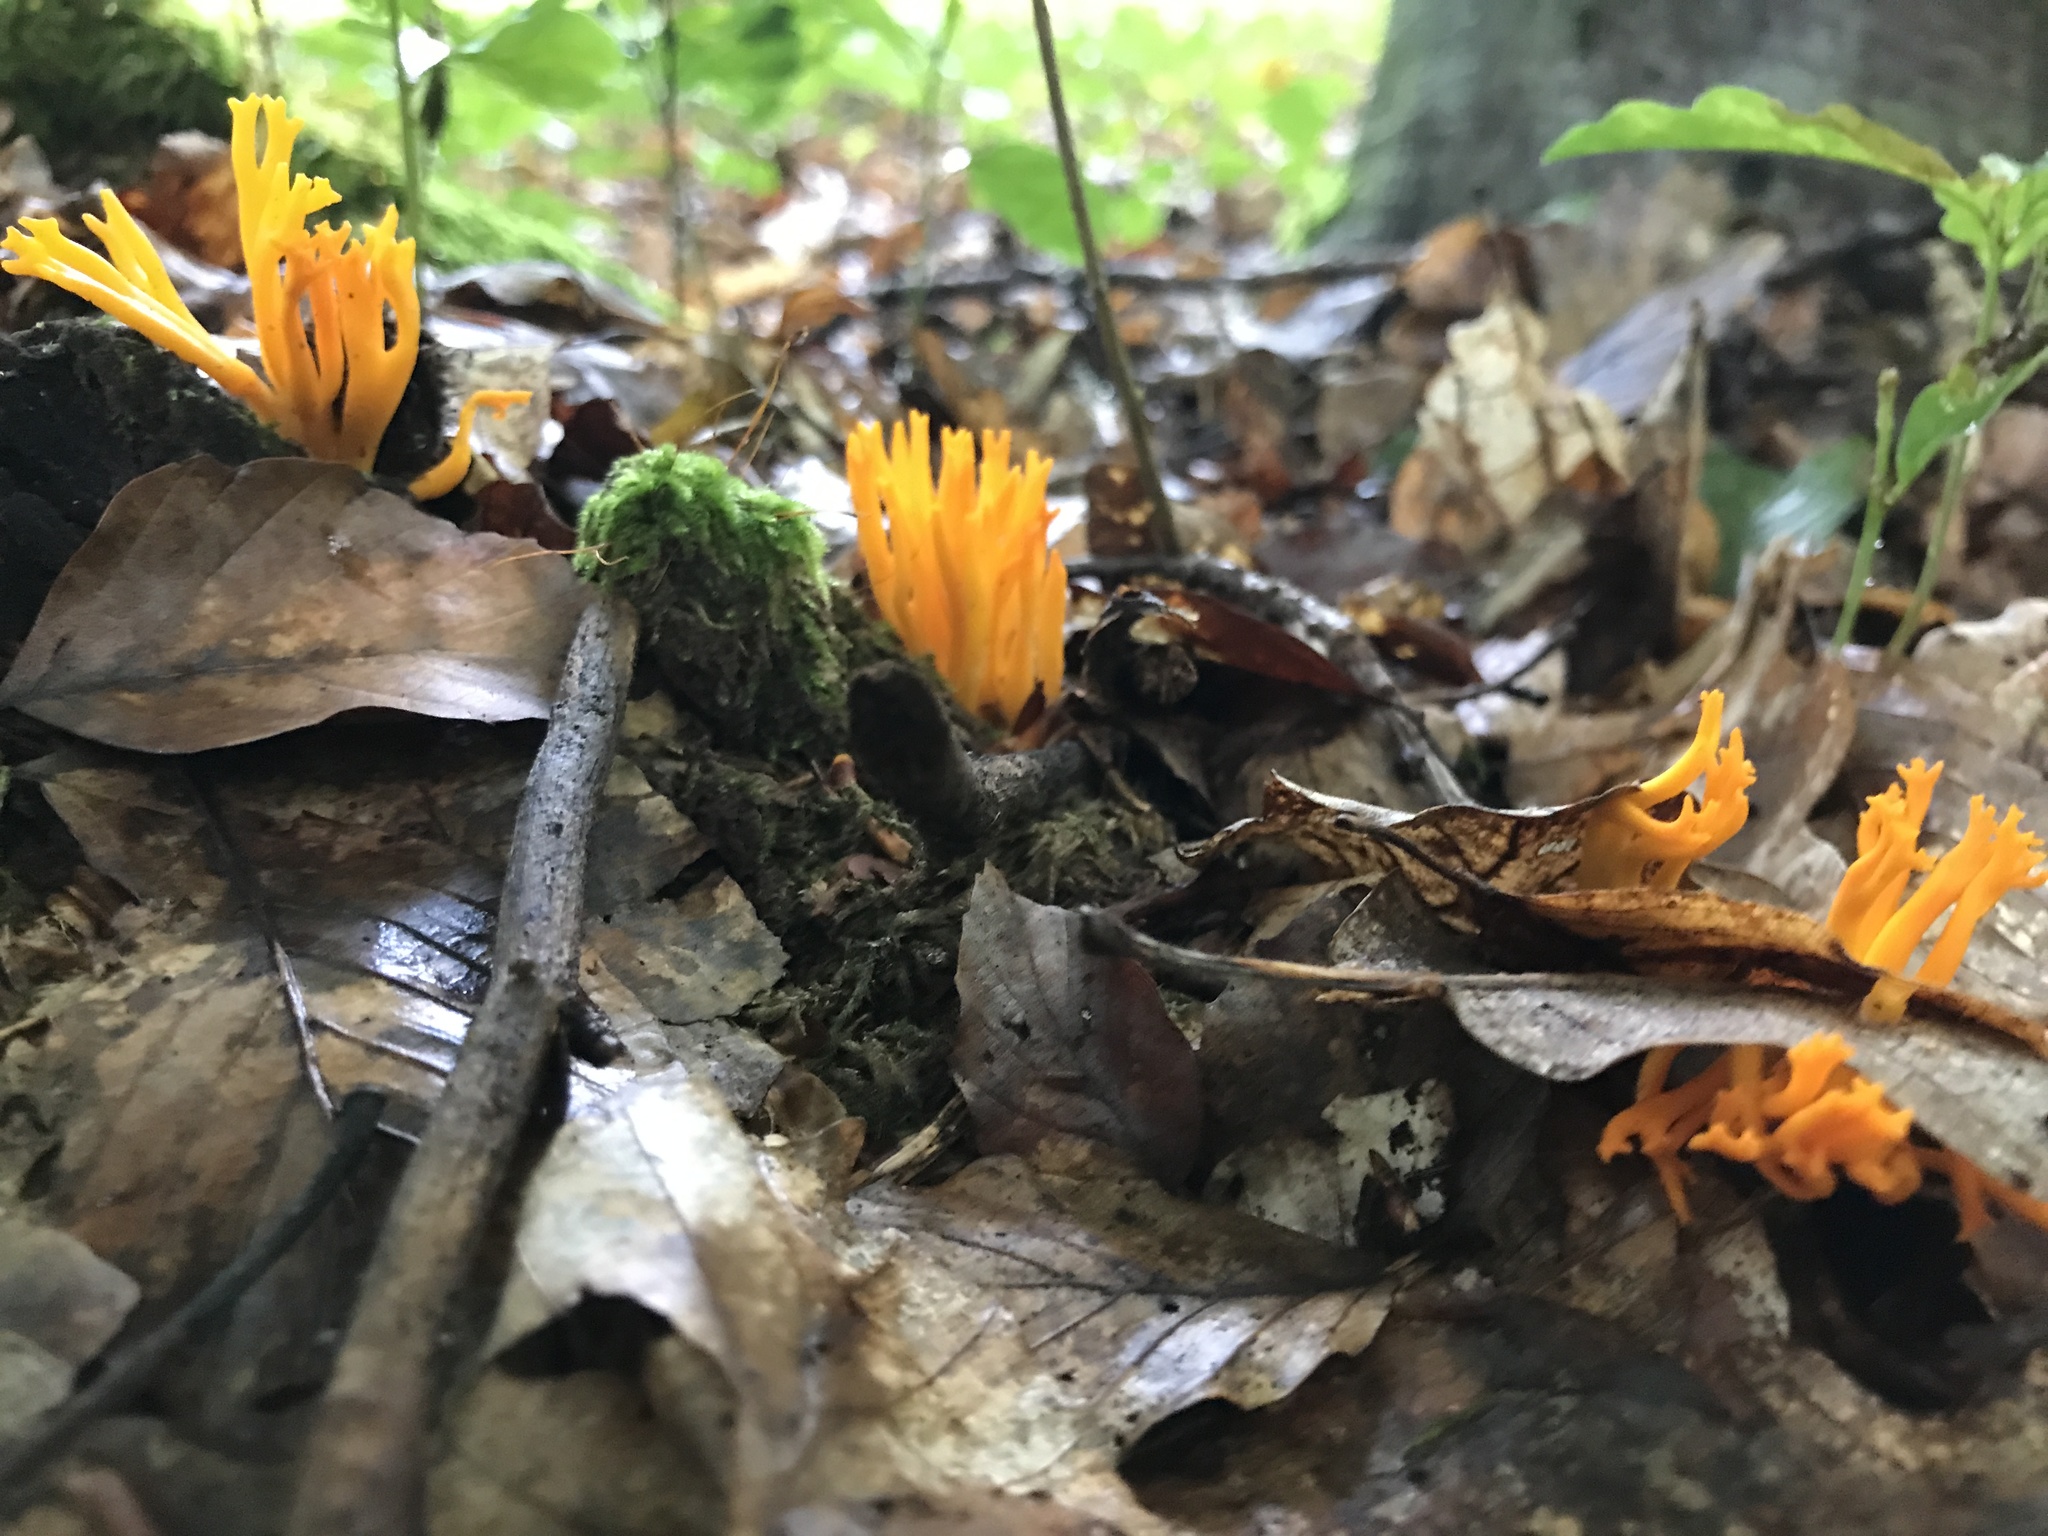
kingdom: Fungi
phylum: Basidiomycota
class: Dacrymycetes
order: Dacrymycetales
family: Dacrymycetaceae
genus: Calocera
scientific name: Calocera viscosa
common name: Yellow stagshorn
